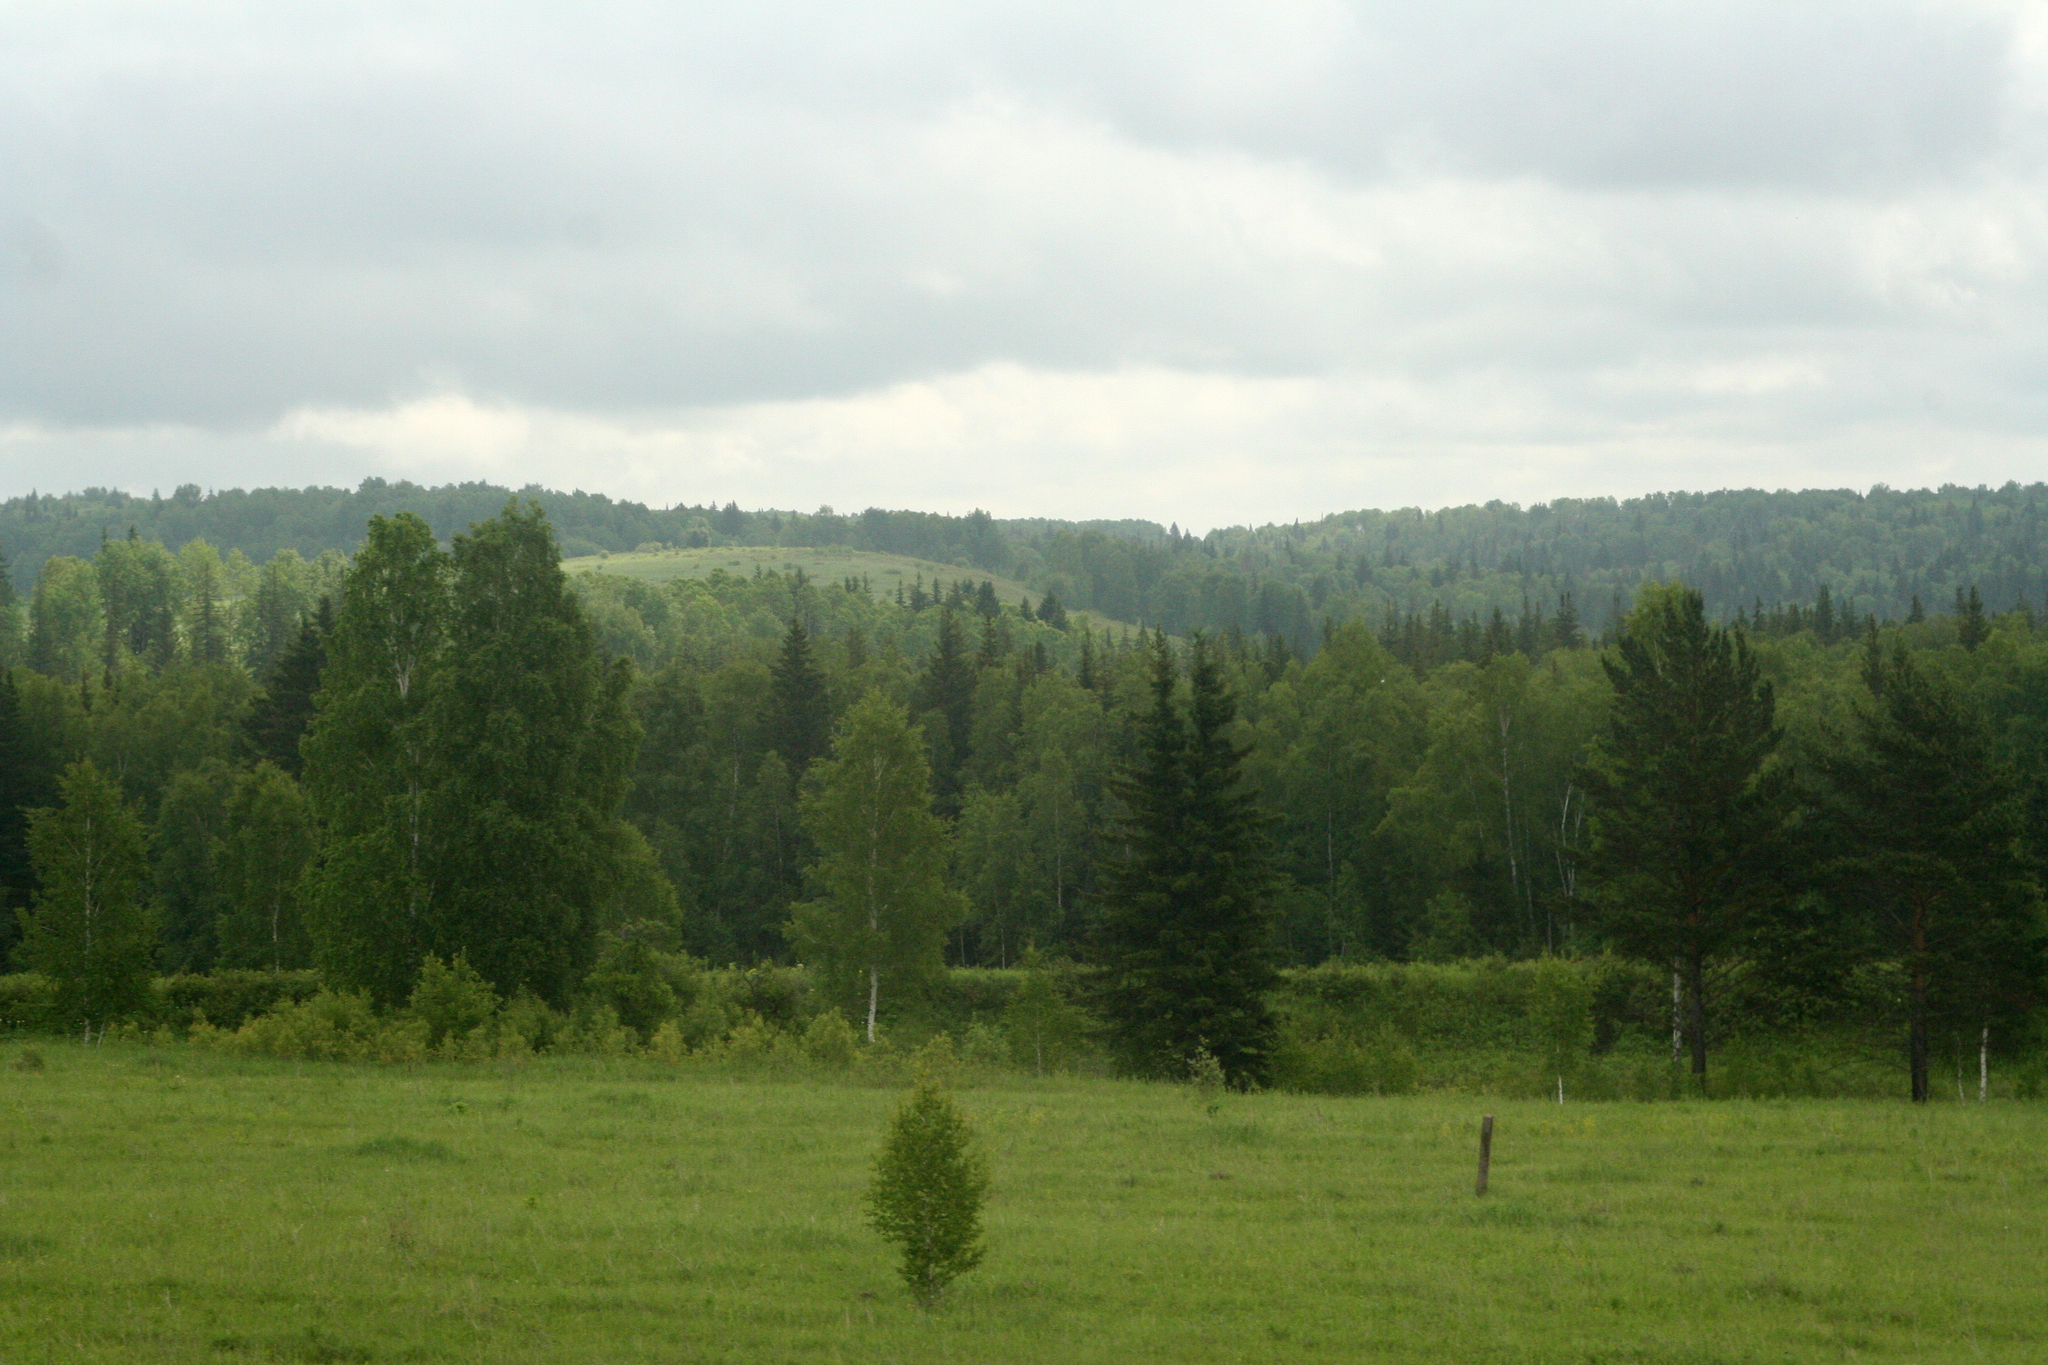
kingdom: Plantae
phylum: Tracheophyta
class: Magnoliopsida
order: Fagales
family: Betulaceae
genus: Betula
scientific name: Betula pendula
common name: Silver birch
